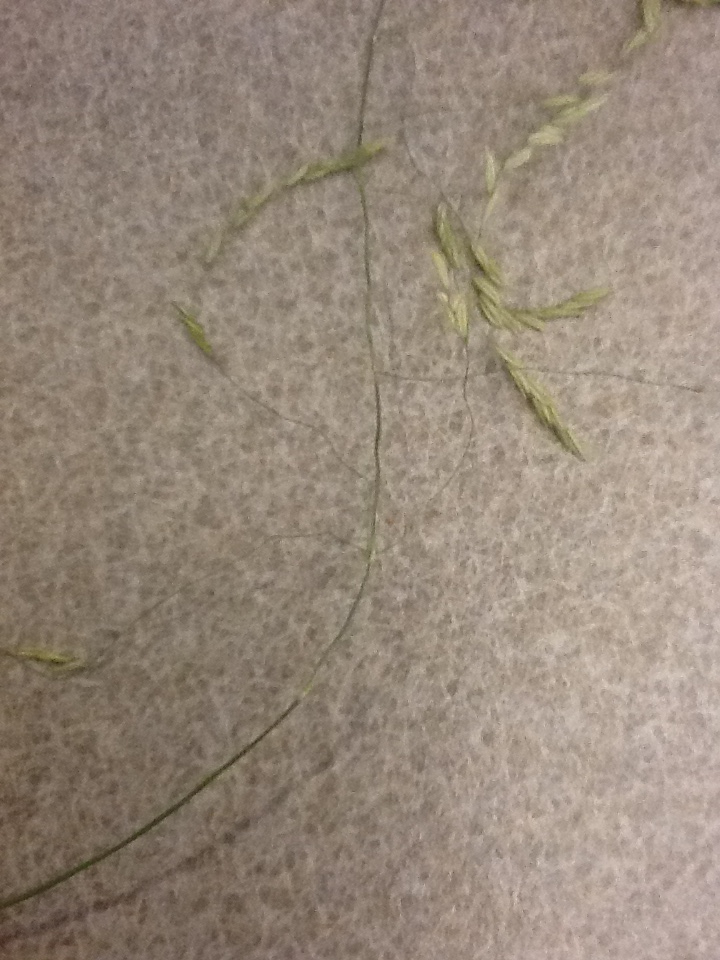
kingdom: Plantae
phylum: Tracheophyta
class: Liliopsida
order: Poales
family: Poaceae
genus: Leersia
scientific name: Leersia oryzoides
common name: Cut-grass
